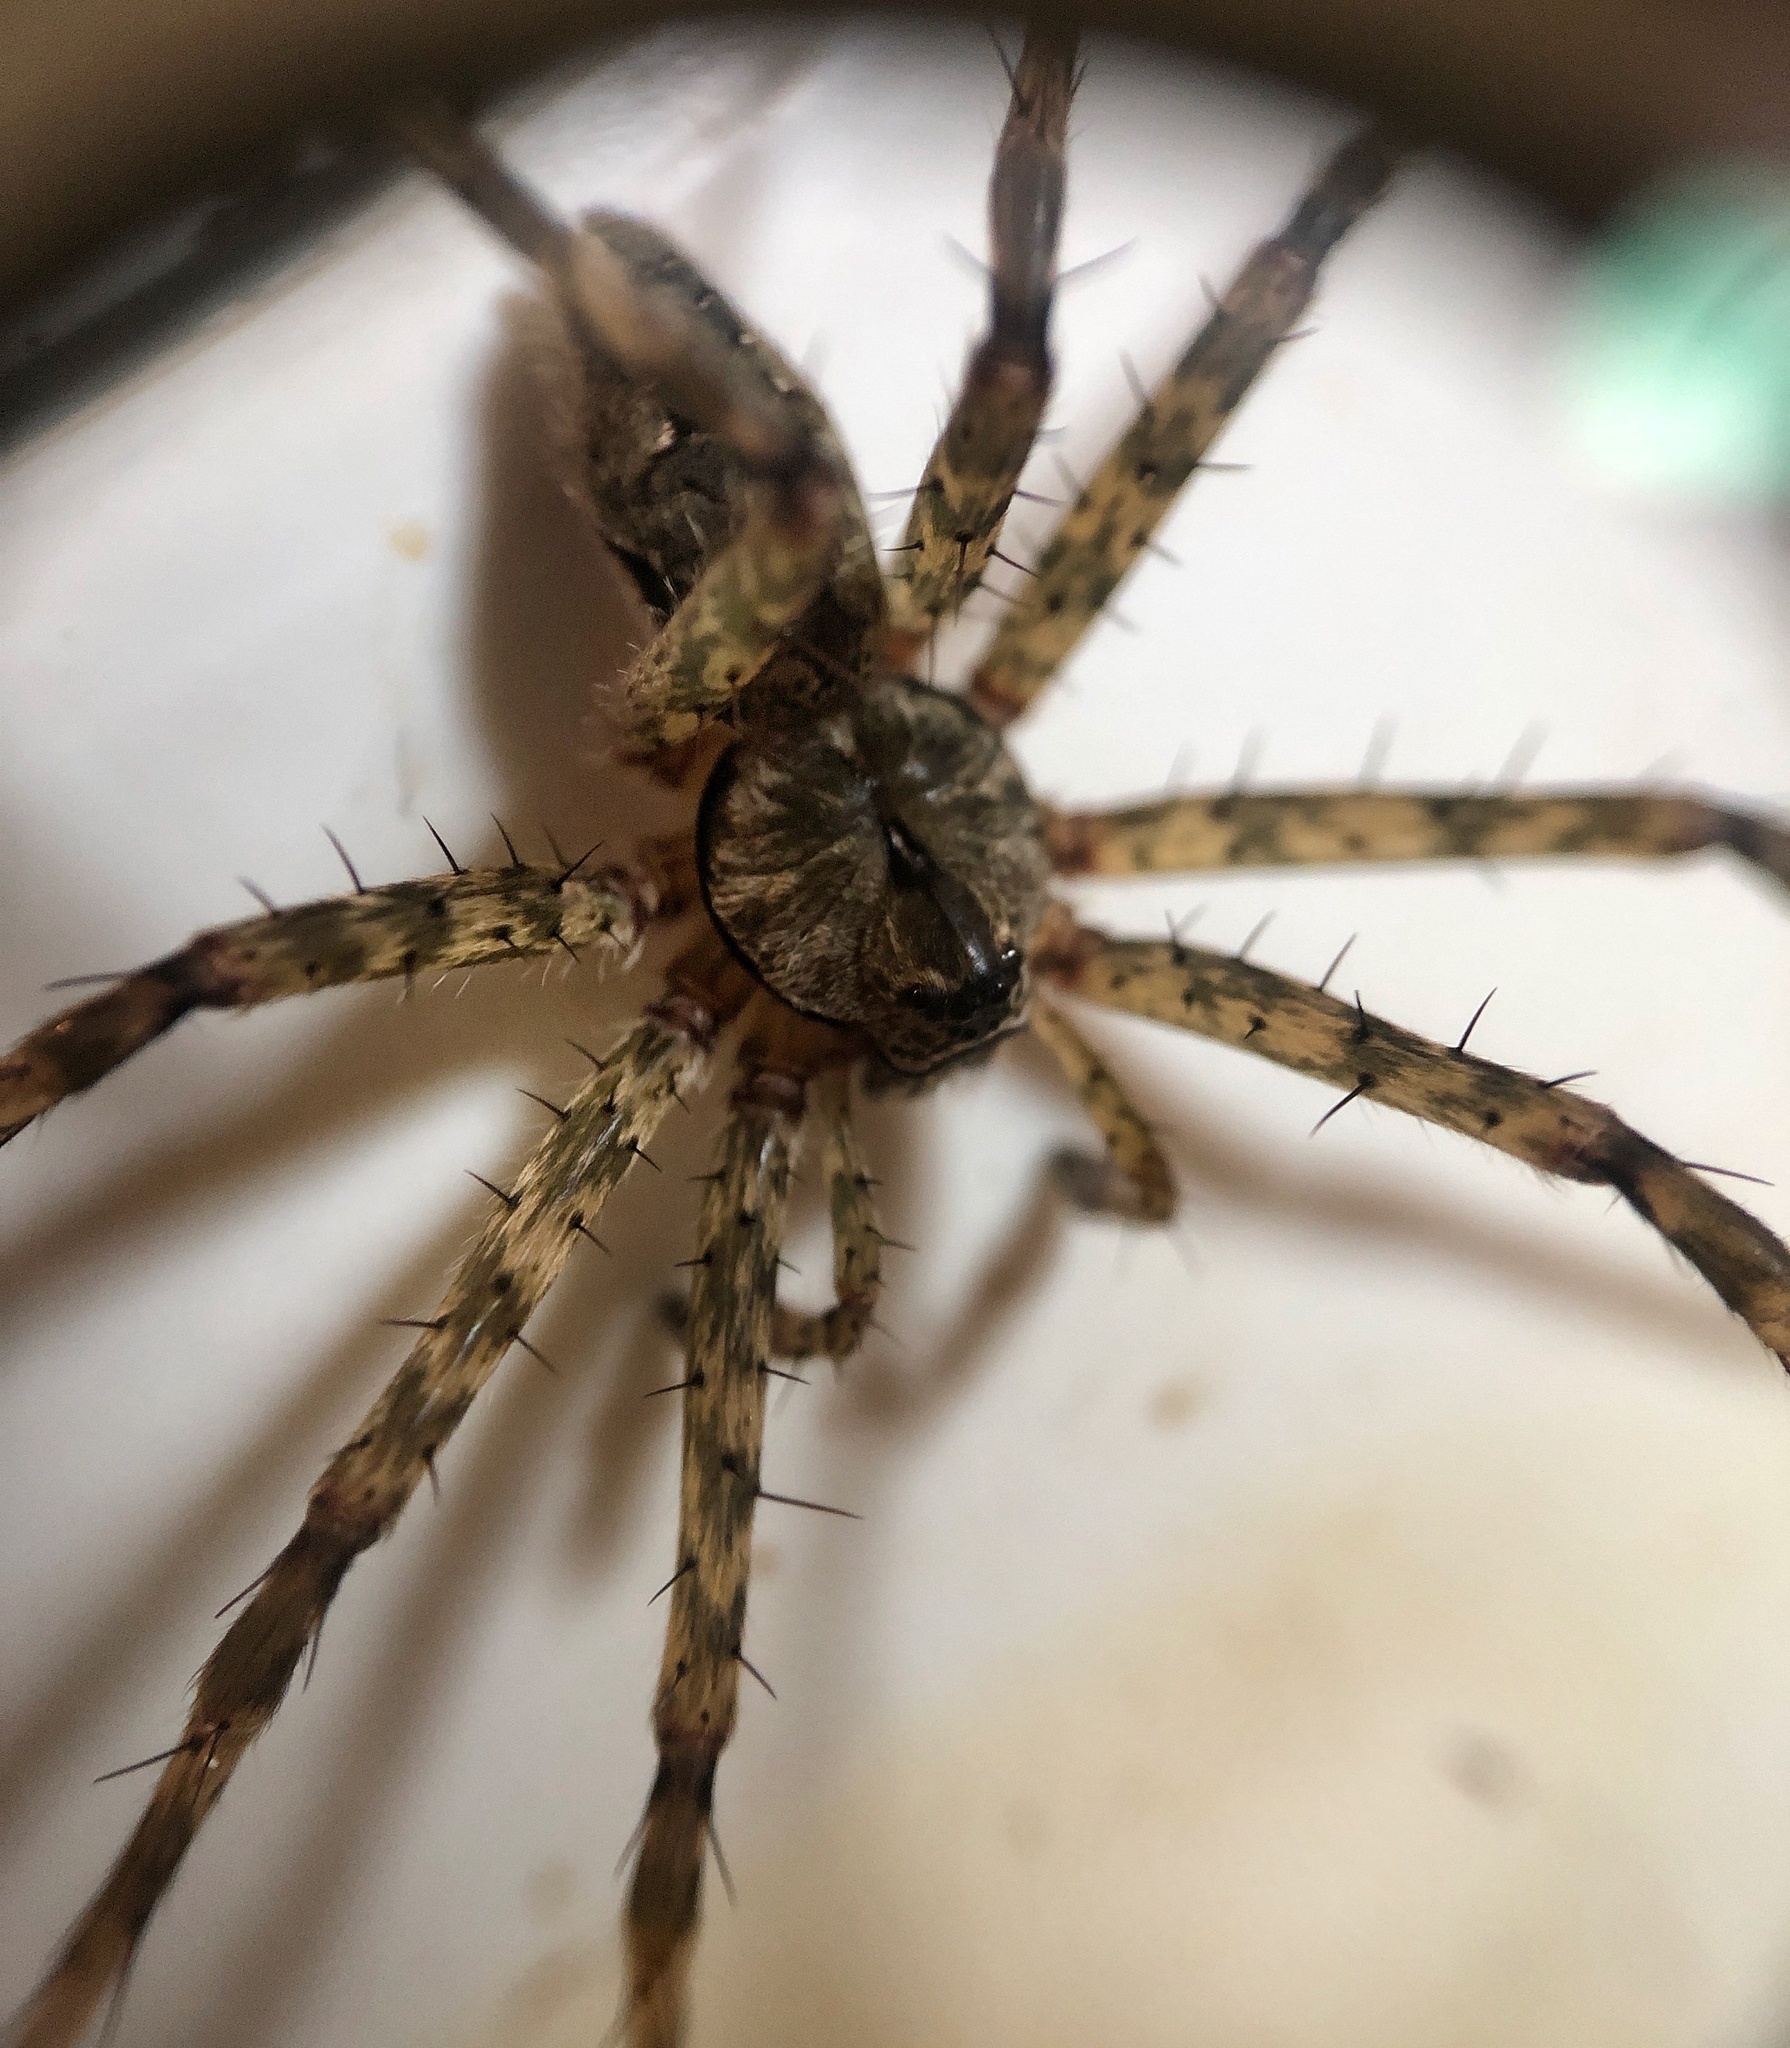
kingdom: Animalia
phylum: Arthropoda
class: Arachnida
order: Araneae
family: Pisauridae
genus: Dolomedes
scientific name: Dolomedes albineus
